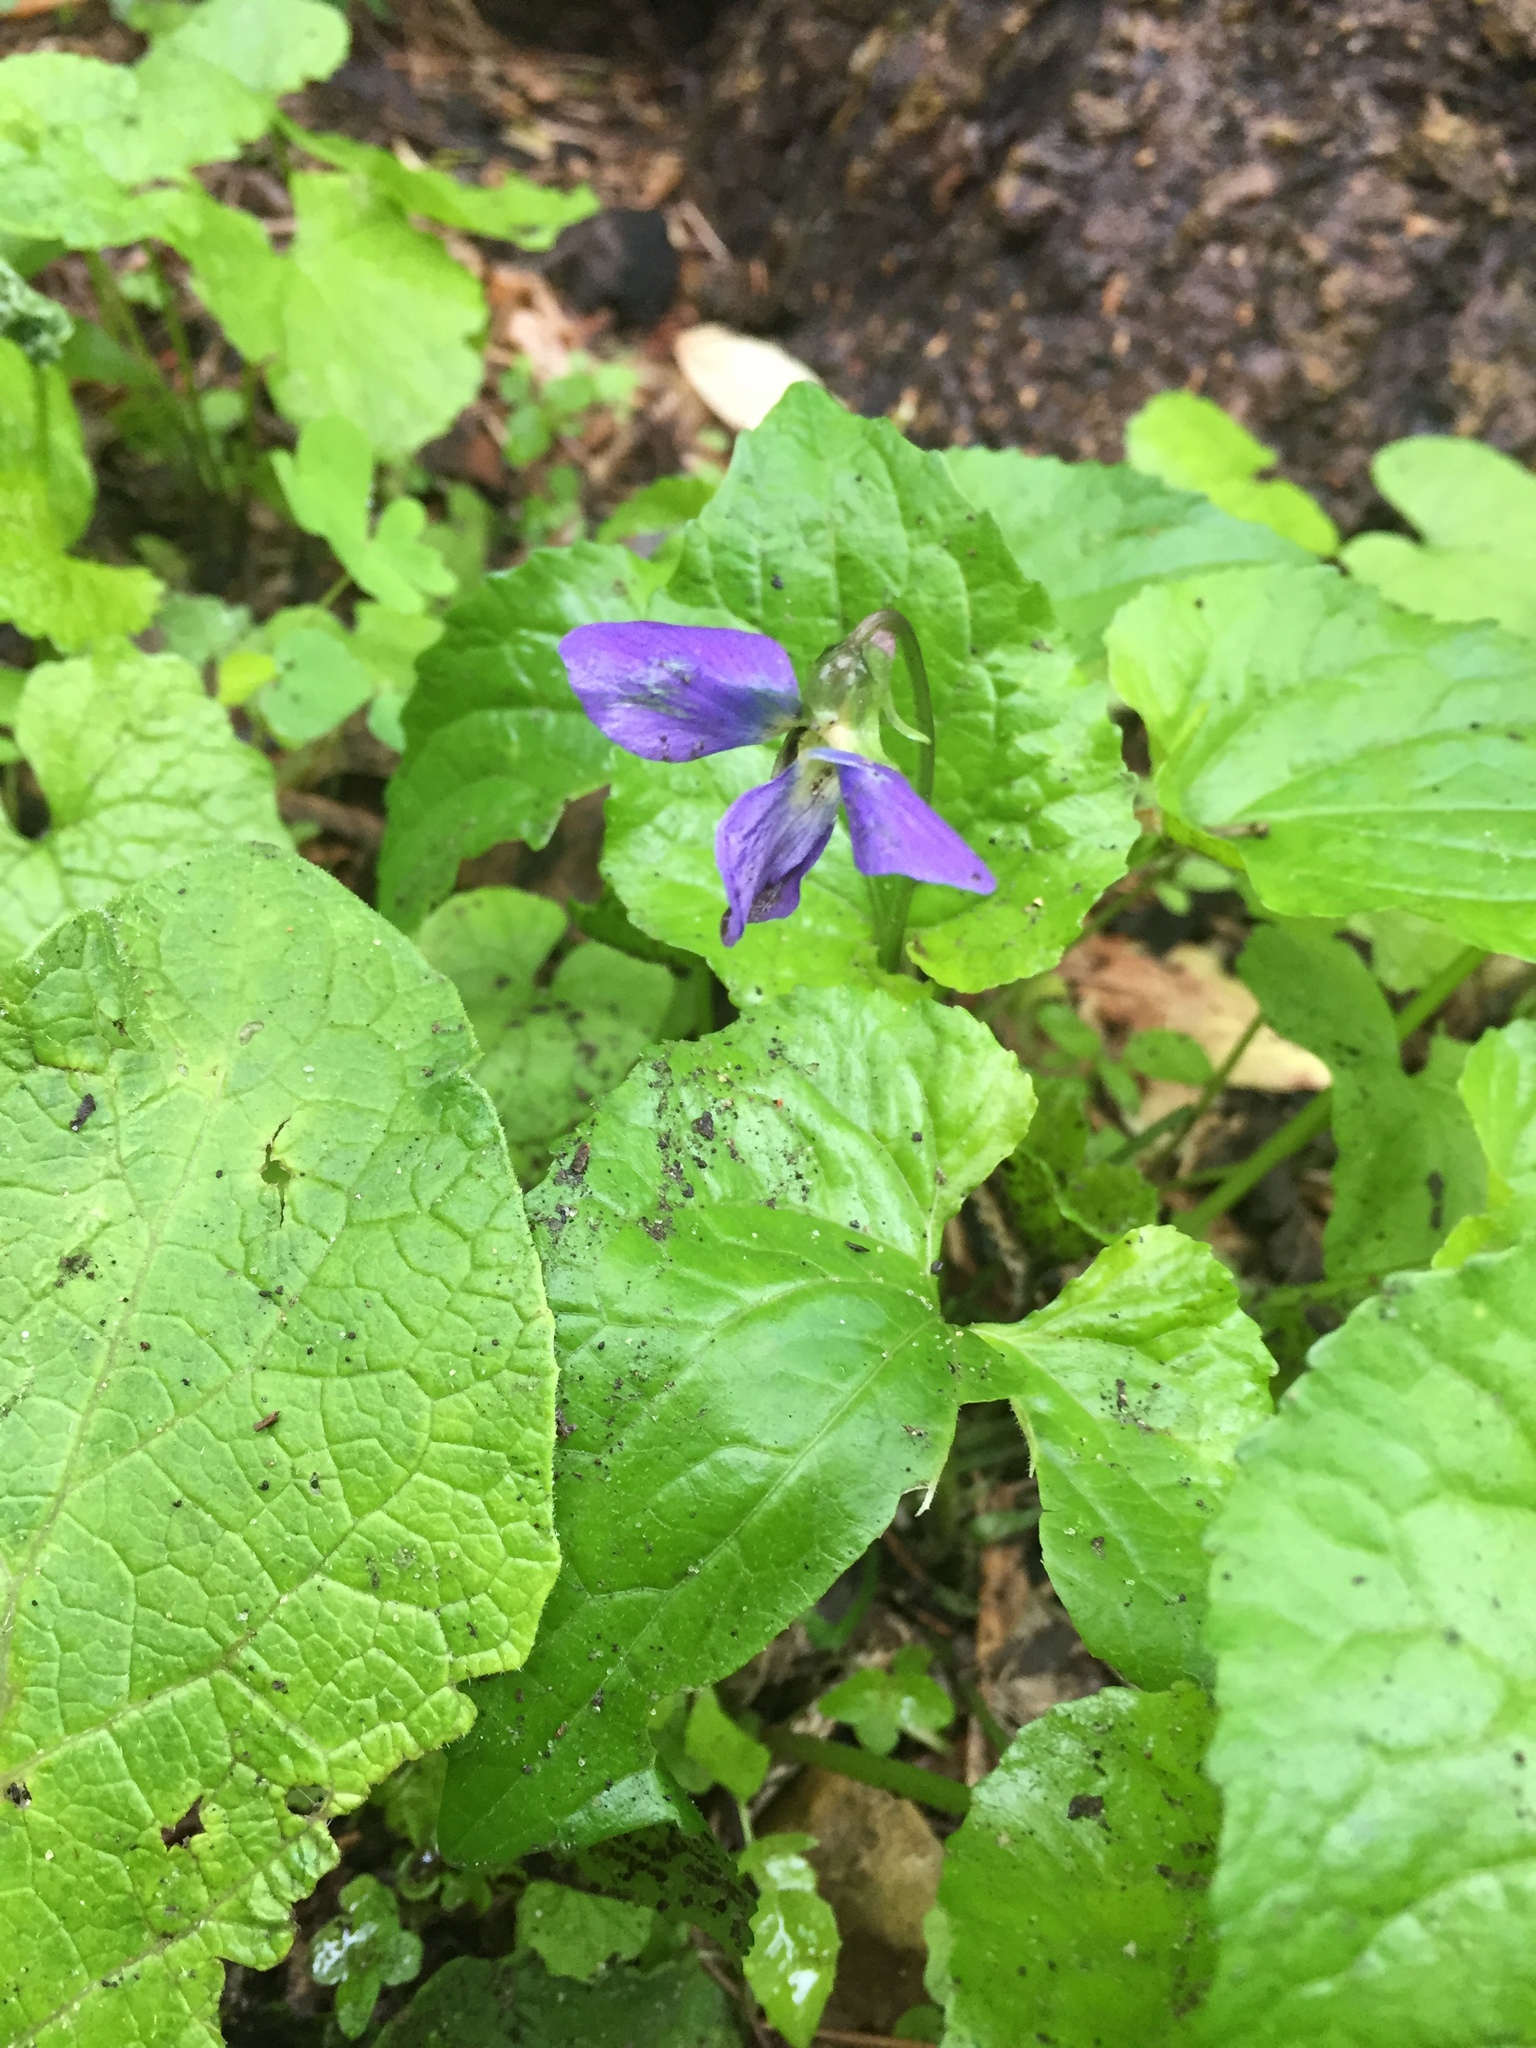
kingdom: Plantae
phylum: Tracheophyta
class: Magnoliopsida
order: Malpighiales
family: Violaceae
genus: Viola
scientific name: Viola sororia
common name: Dooryard violet
